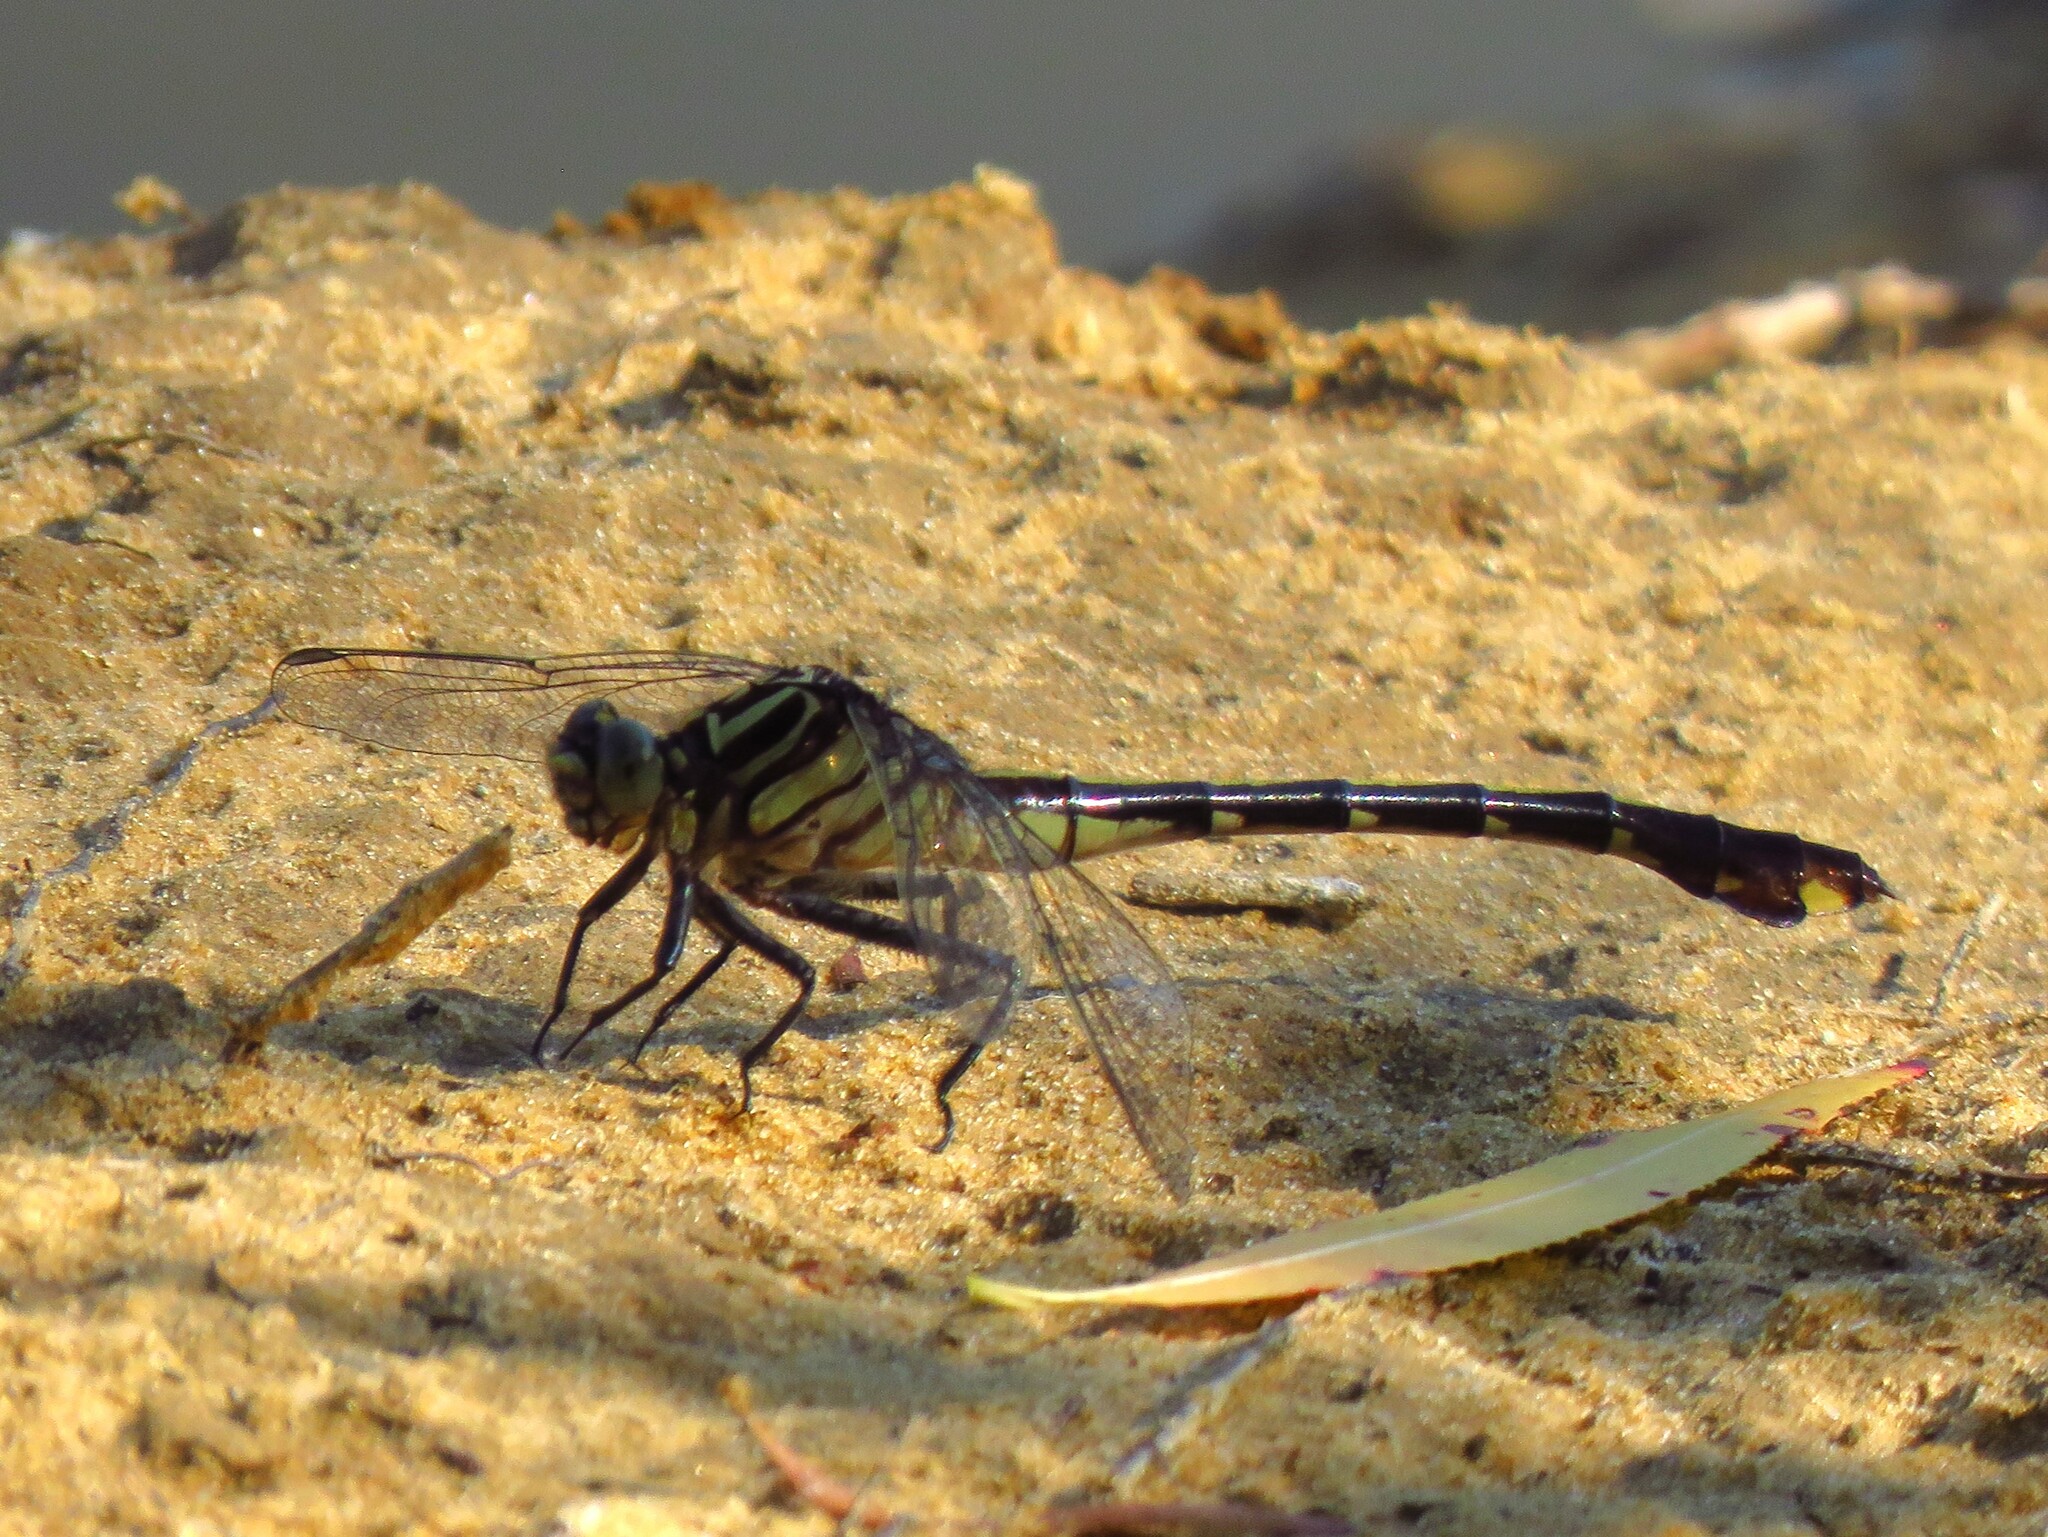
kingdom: Animalia
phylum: Arthropoda
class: Insecta
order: Odonata
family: Gomphidae
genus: Gomphurus
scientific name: Gomphurus vastus
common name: Cobra clubtail
